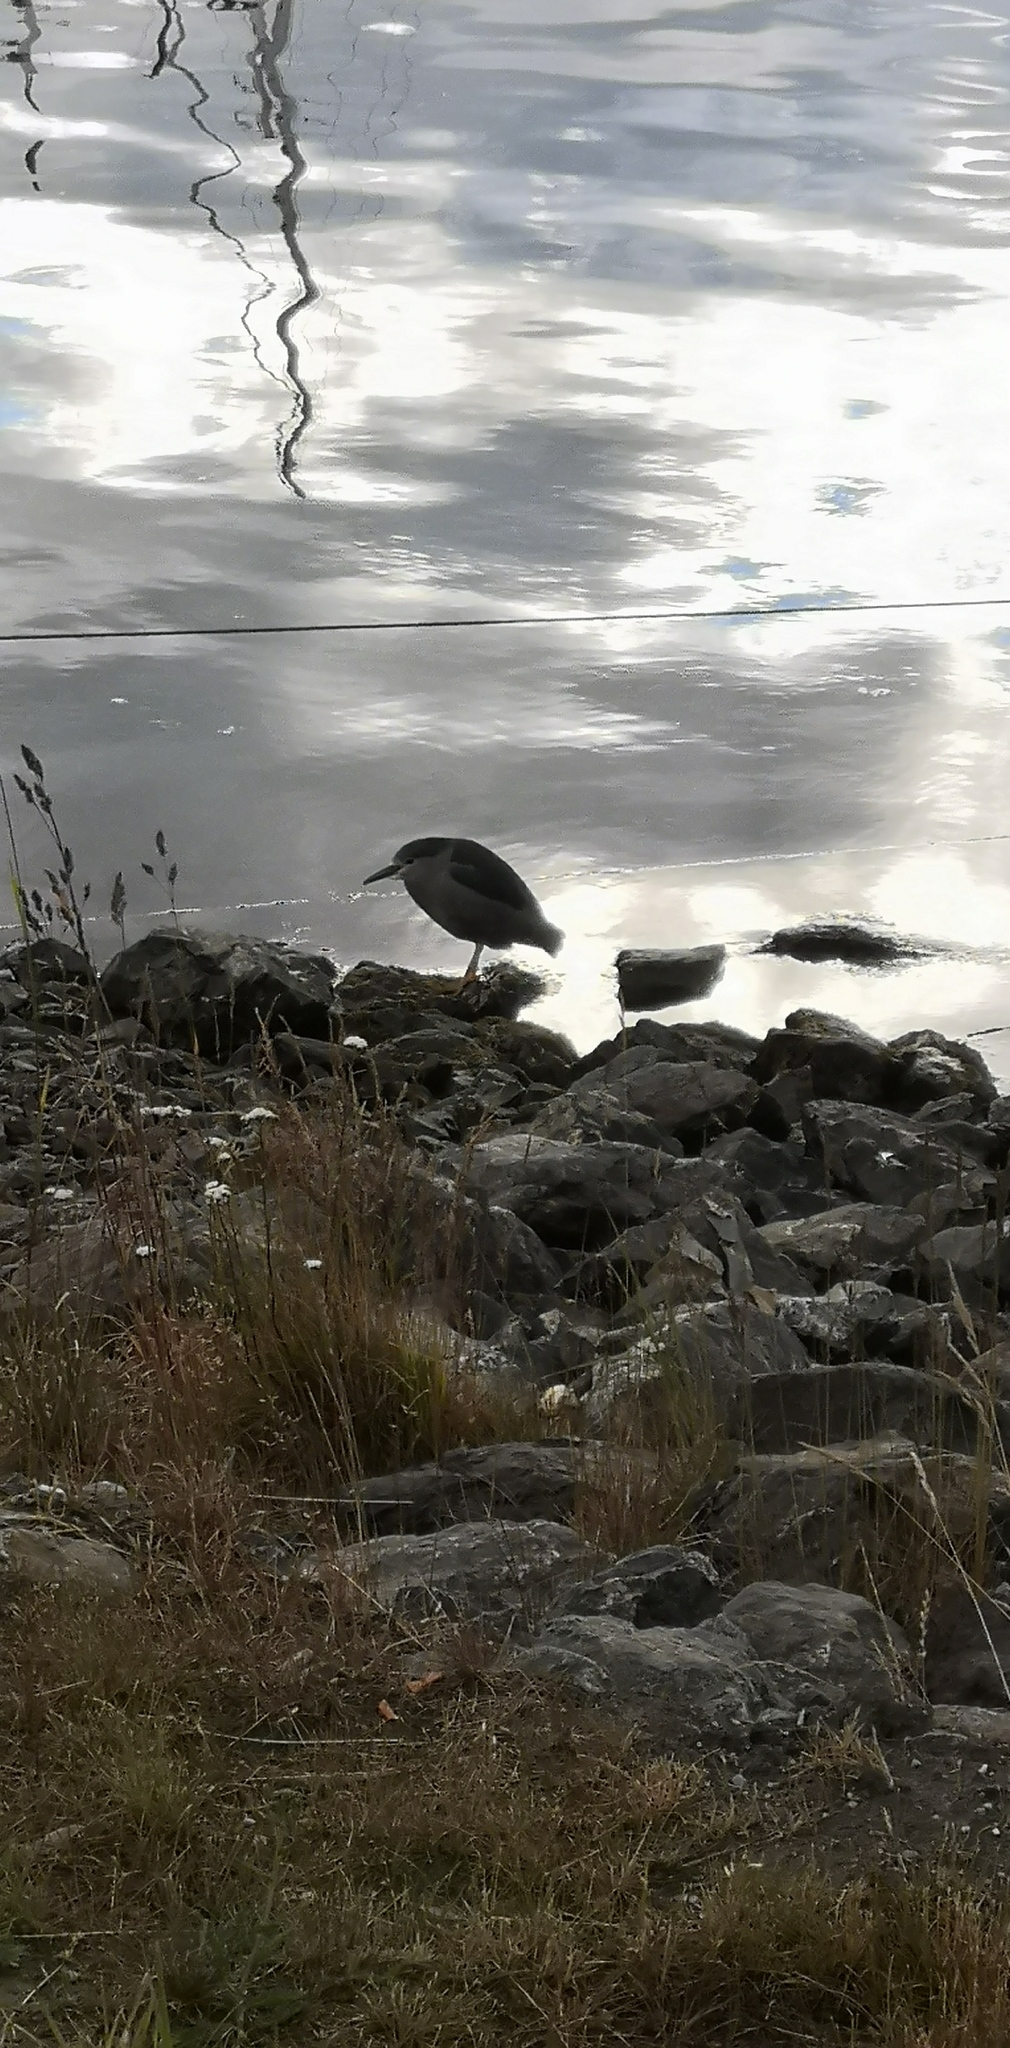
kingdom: Animalia
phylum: Chordata
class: Aves
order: Pelecaniformes
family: Ardeidae
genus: Nycticorax
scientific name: Nycticorax nycticorax
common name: Black-crowned night heron
